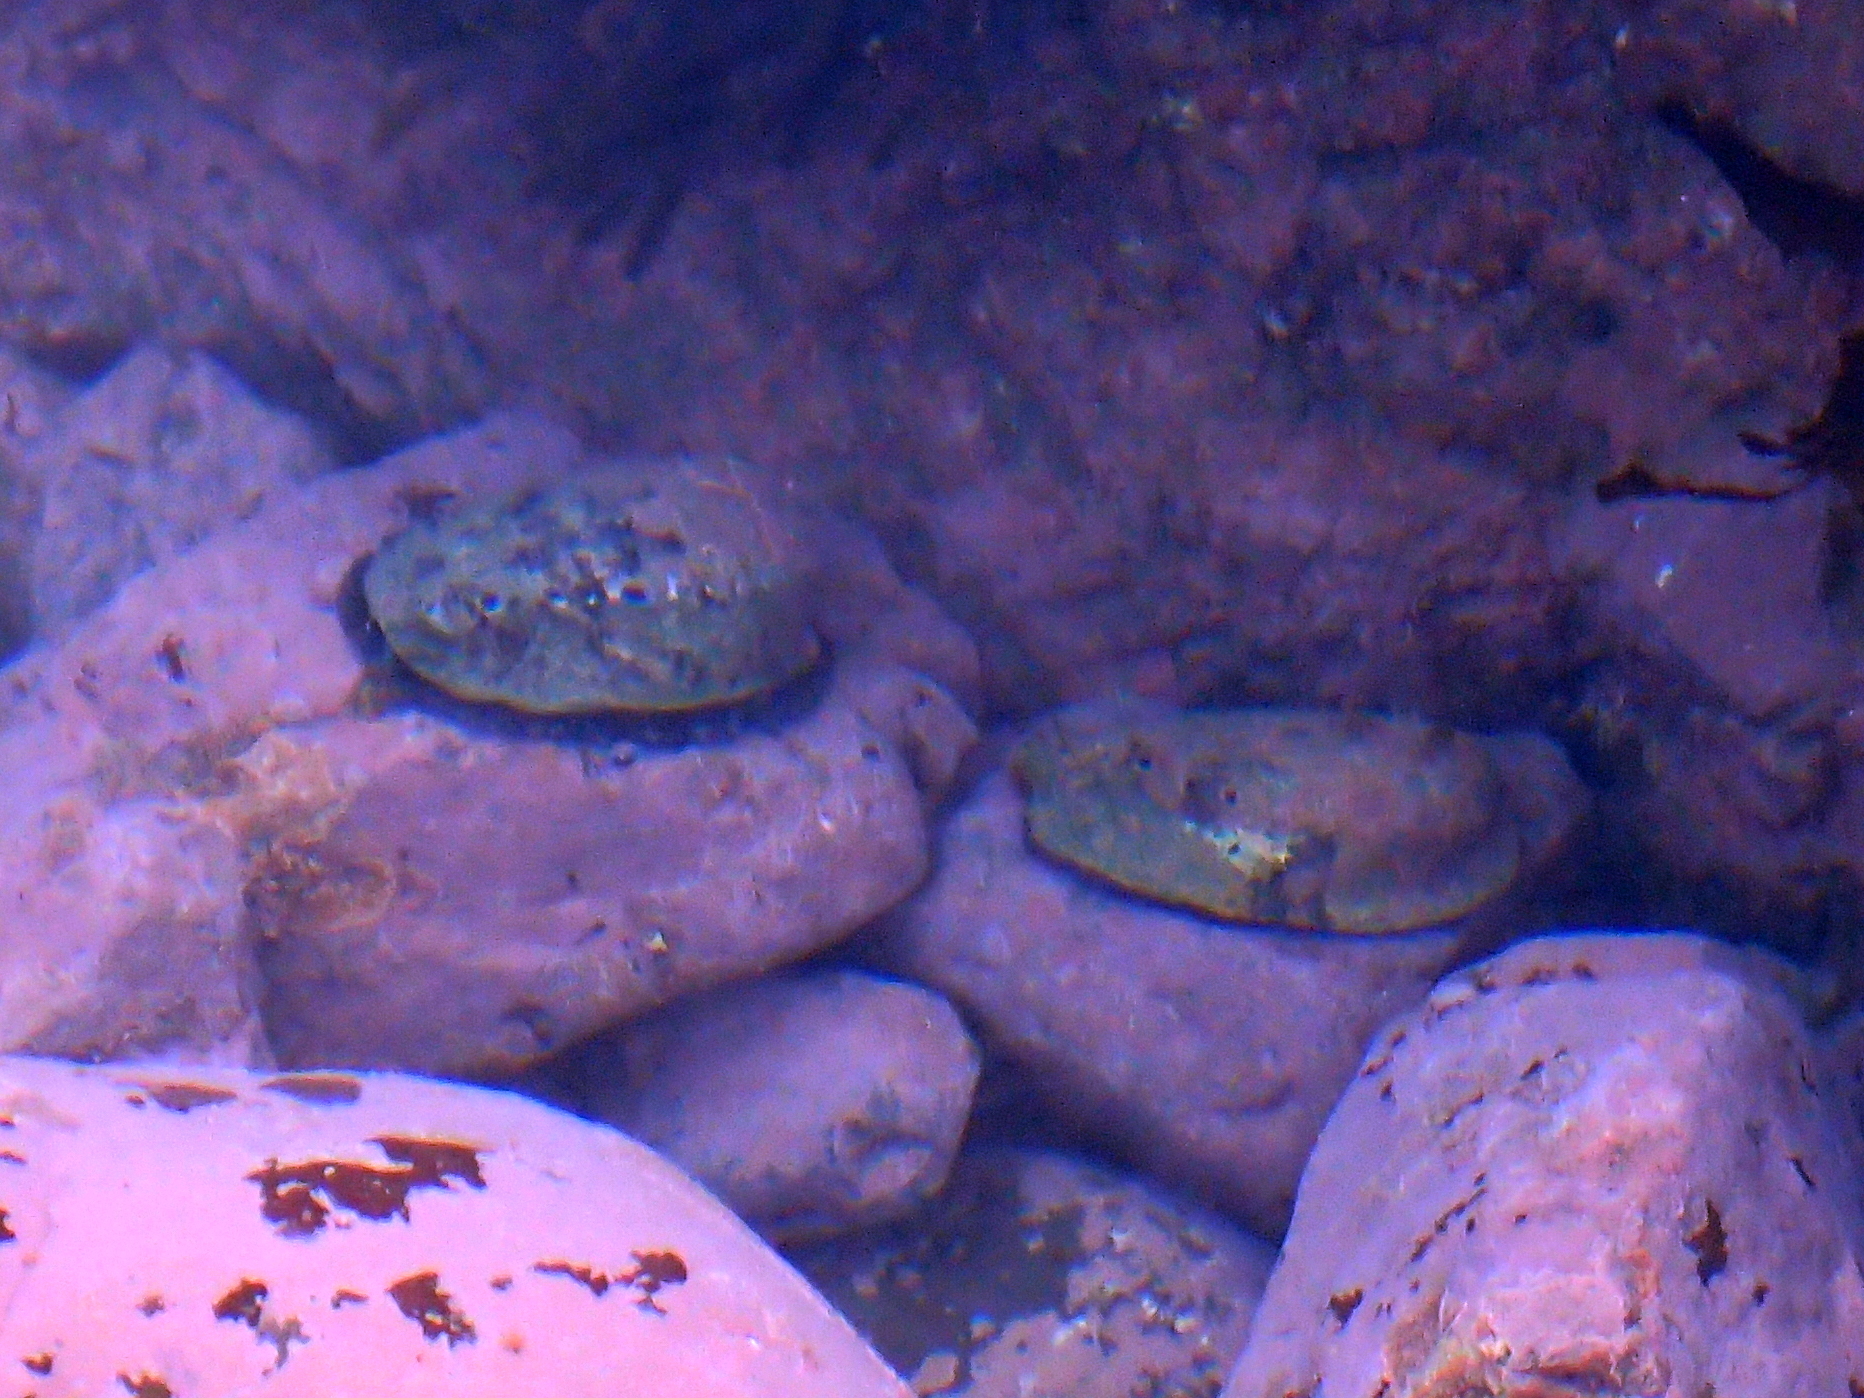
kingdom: Animalia
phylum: Mollusca
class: Gastropoda
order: Lepetellida
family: Haliotidae
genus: Haliotis
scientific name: Haliotis iris
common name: Abalone
